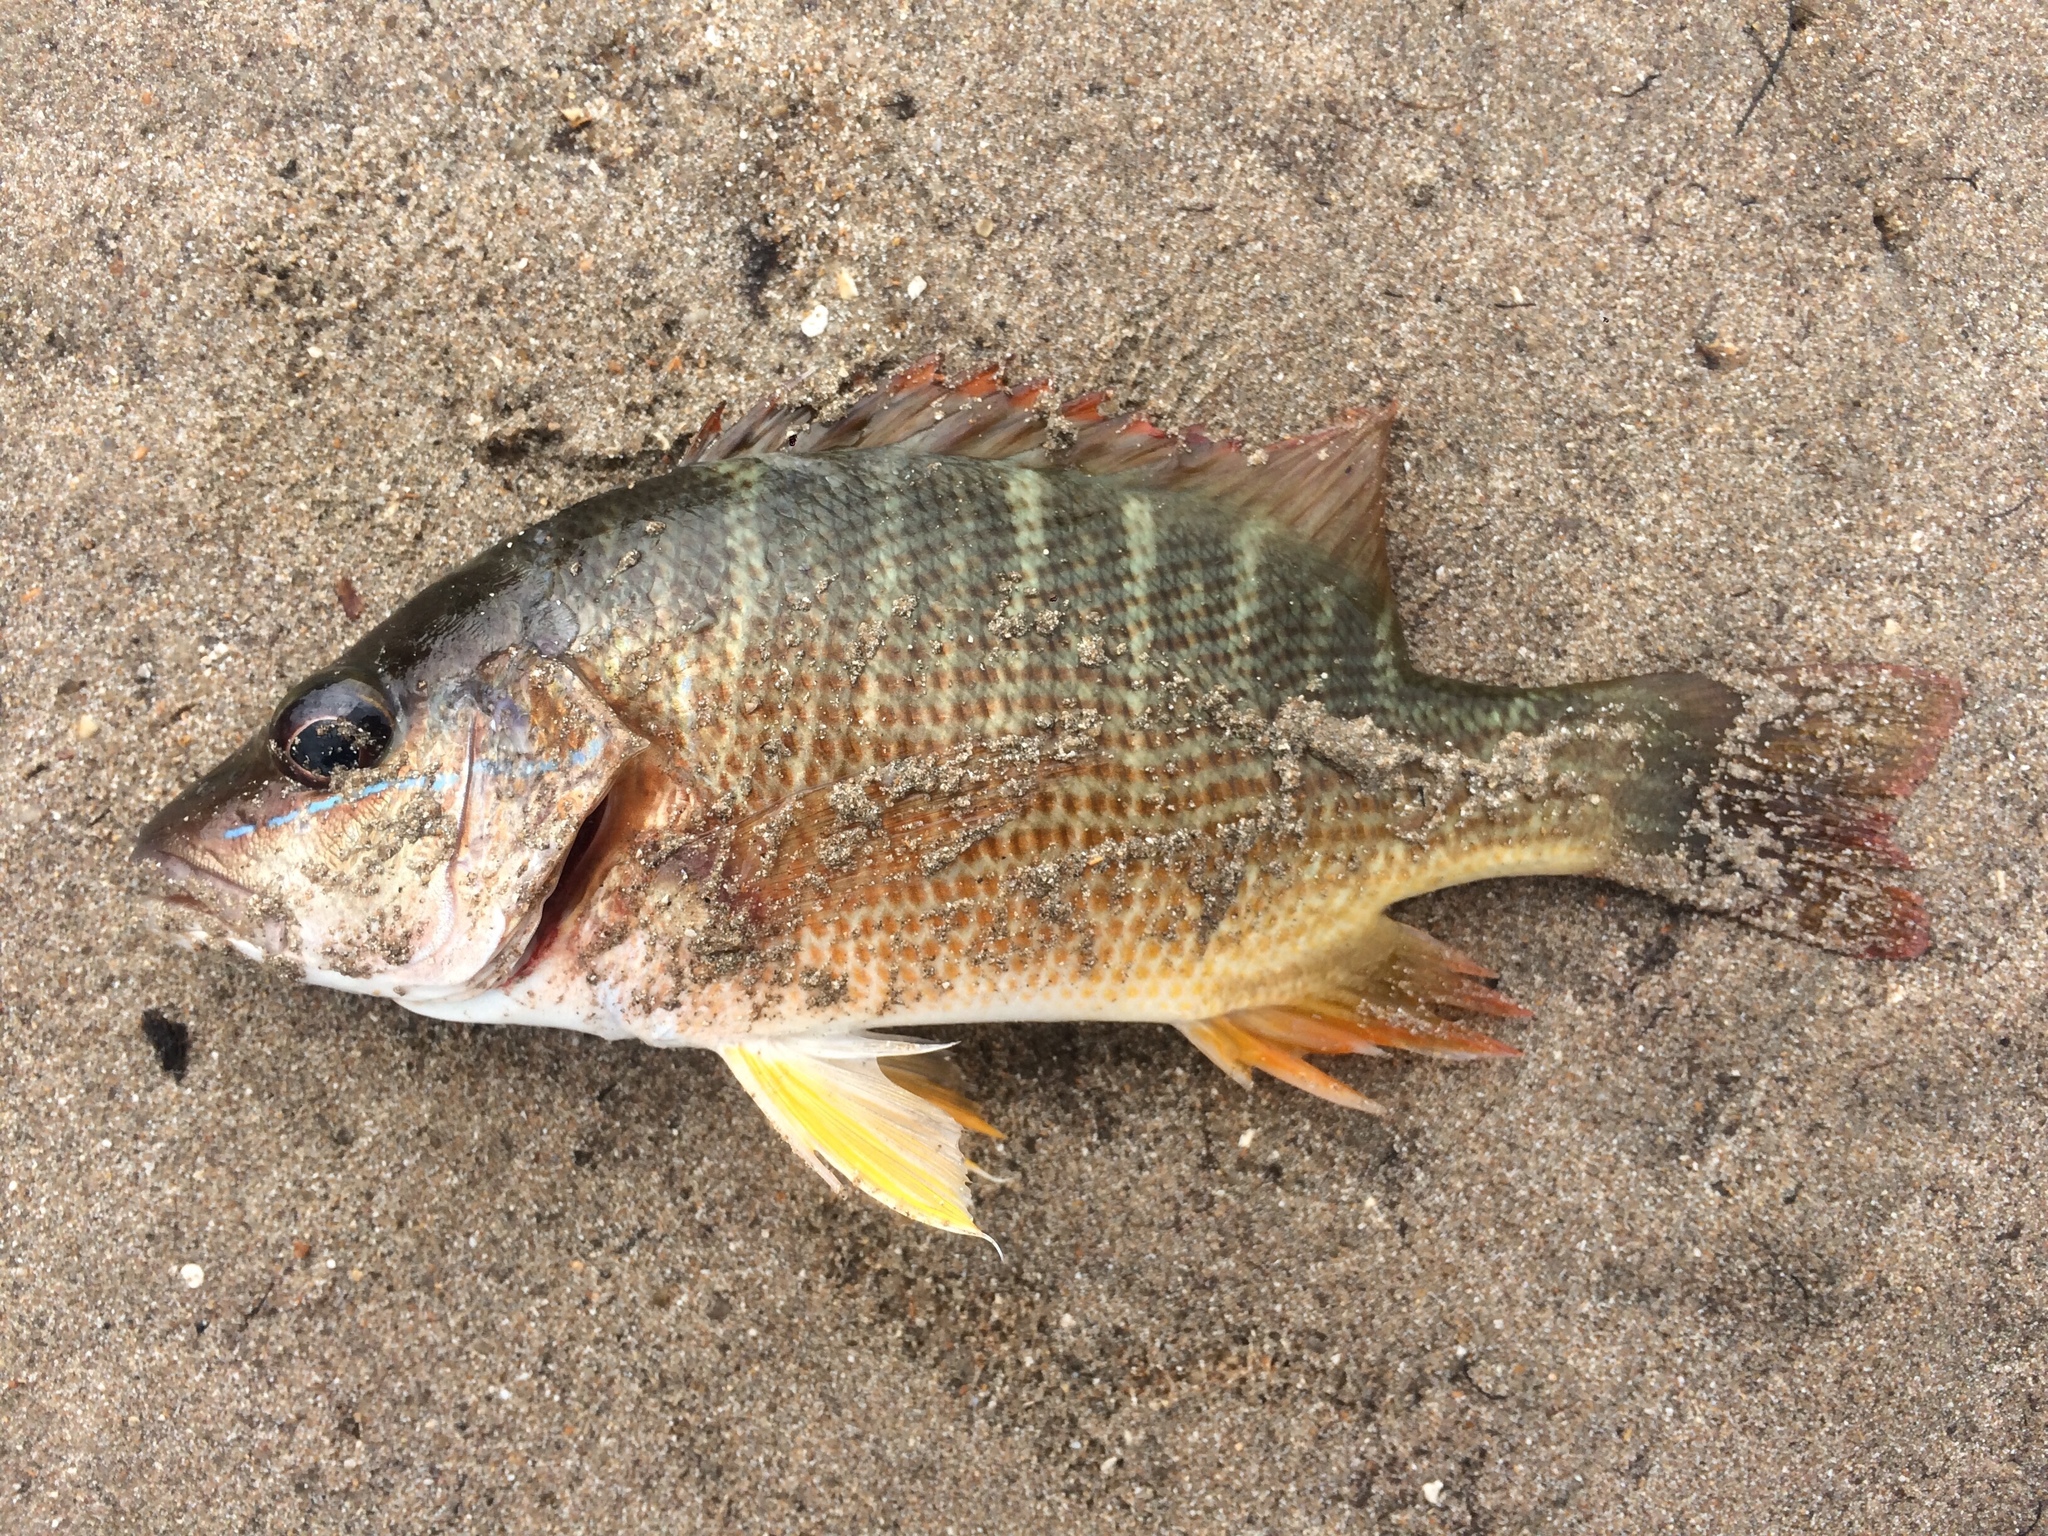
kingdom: Animalia
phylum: Chordata
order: Perciformes
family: Lutjanidae
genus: Lutjanus
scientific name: Lutjanus alexandrei
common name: Brazilian snapper
